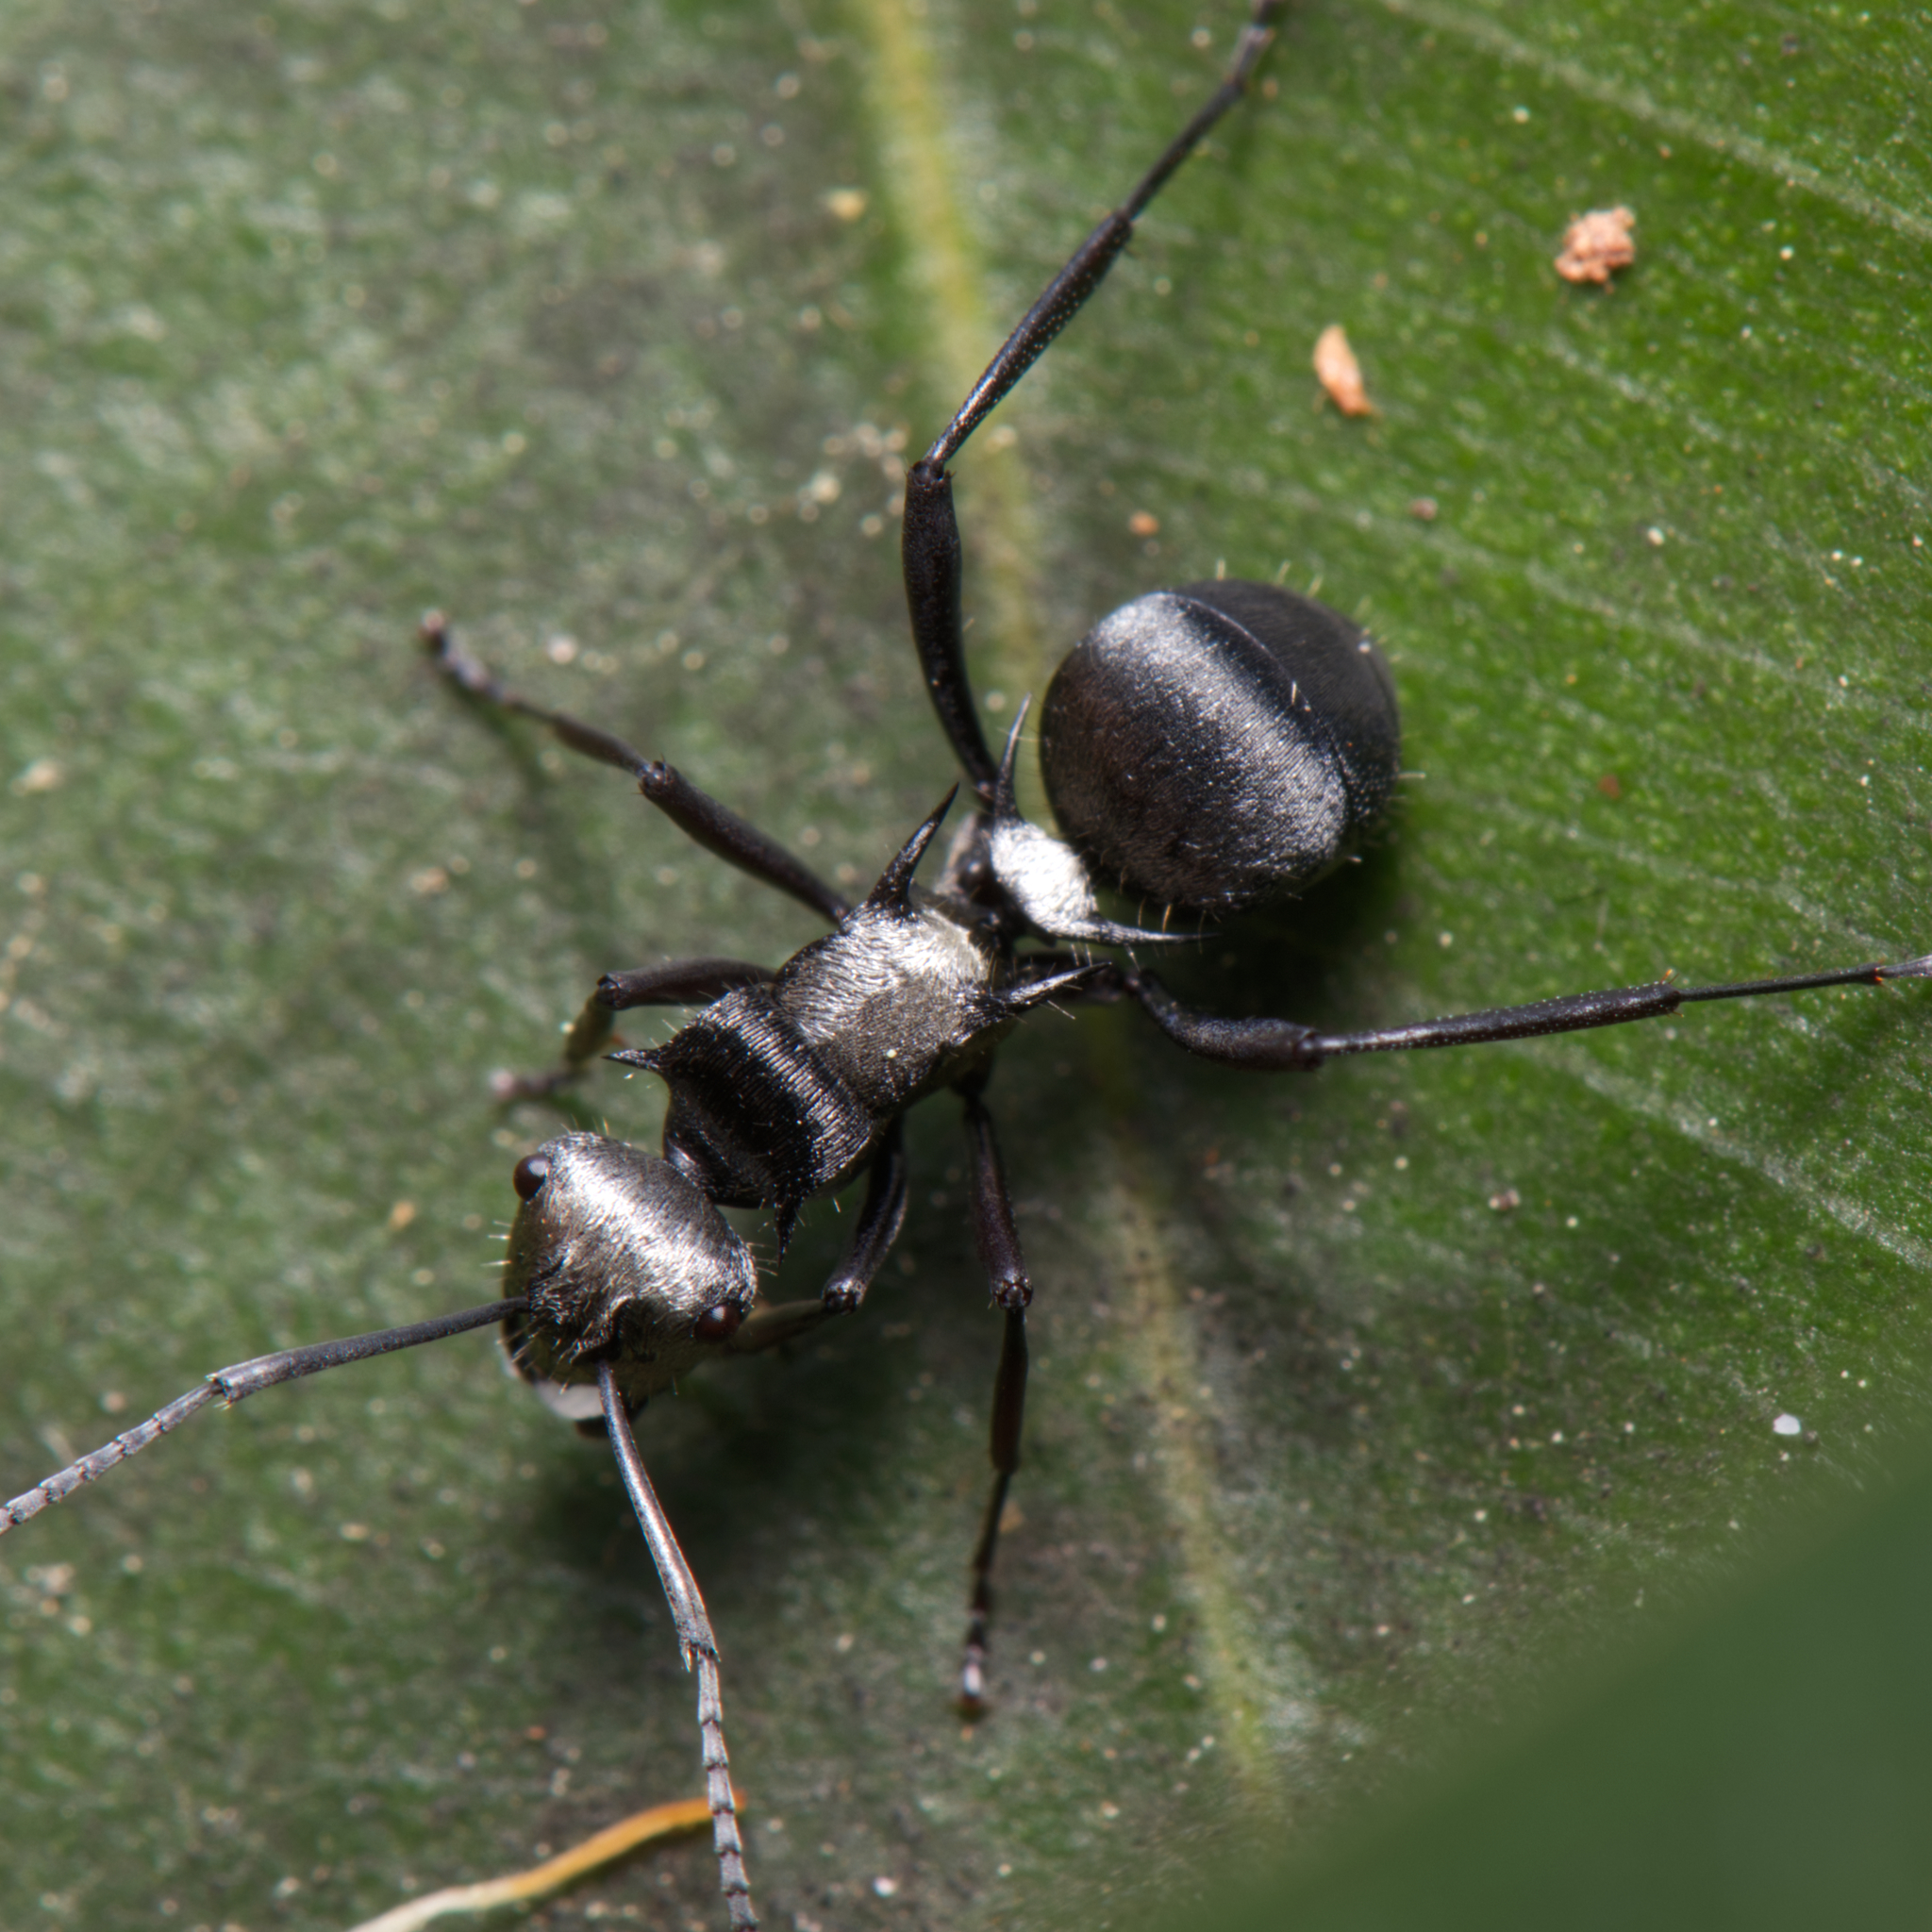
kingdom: Animalia
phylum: Arthropoda
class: Insecta
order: Hymenoptera
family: Formicidae
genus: Polyrhachis
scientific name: Polyrhachis daemeli
